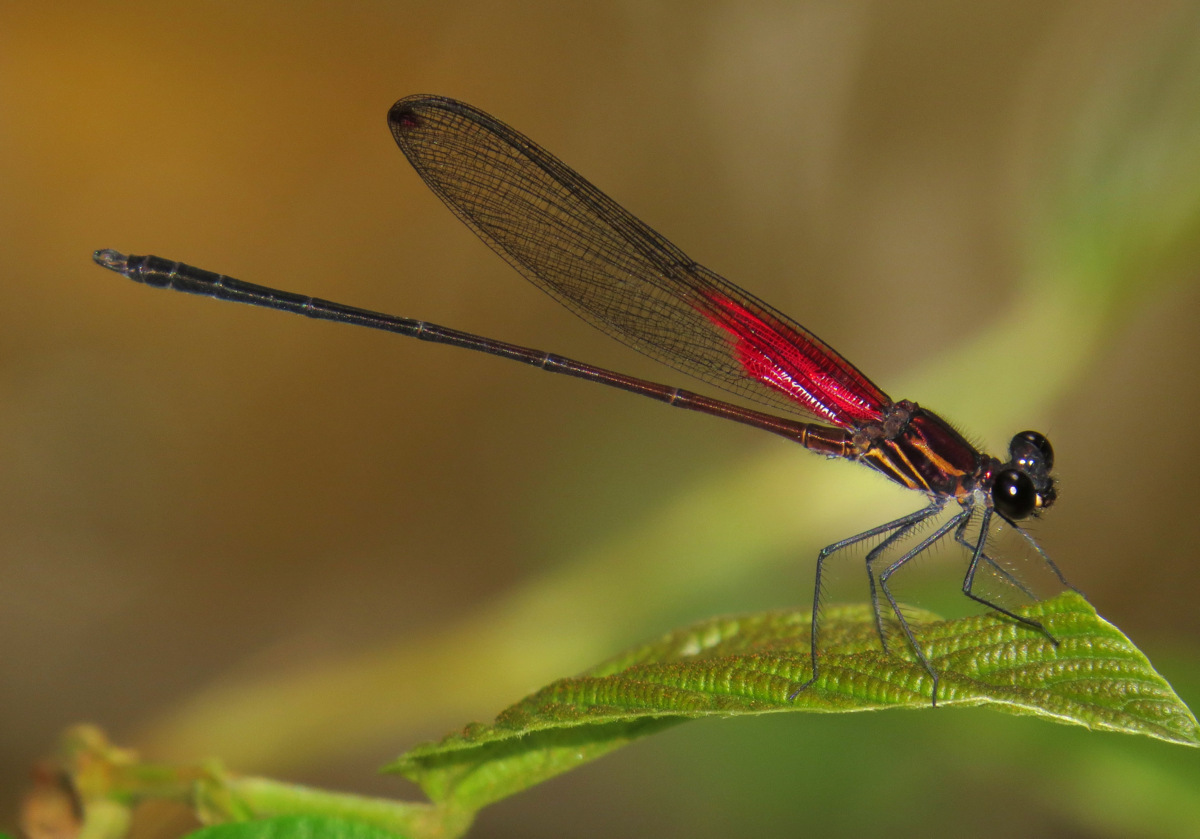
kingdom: Animalia
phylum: Arthropoda
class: Insecta
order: Odonata
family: Calopterygidae
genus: Hetaerina
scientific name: Hetaerina occisa
